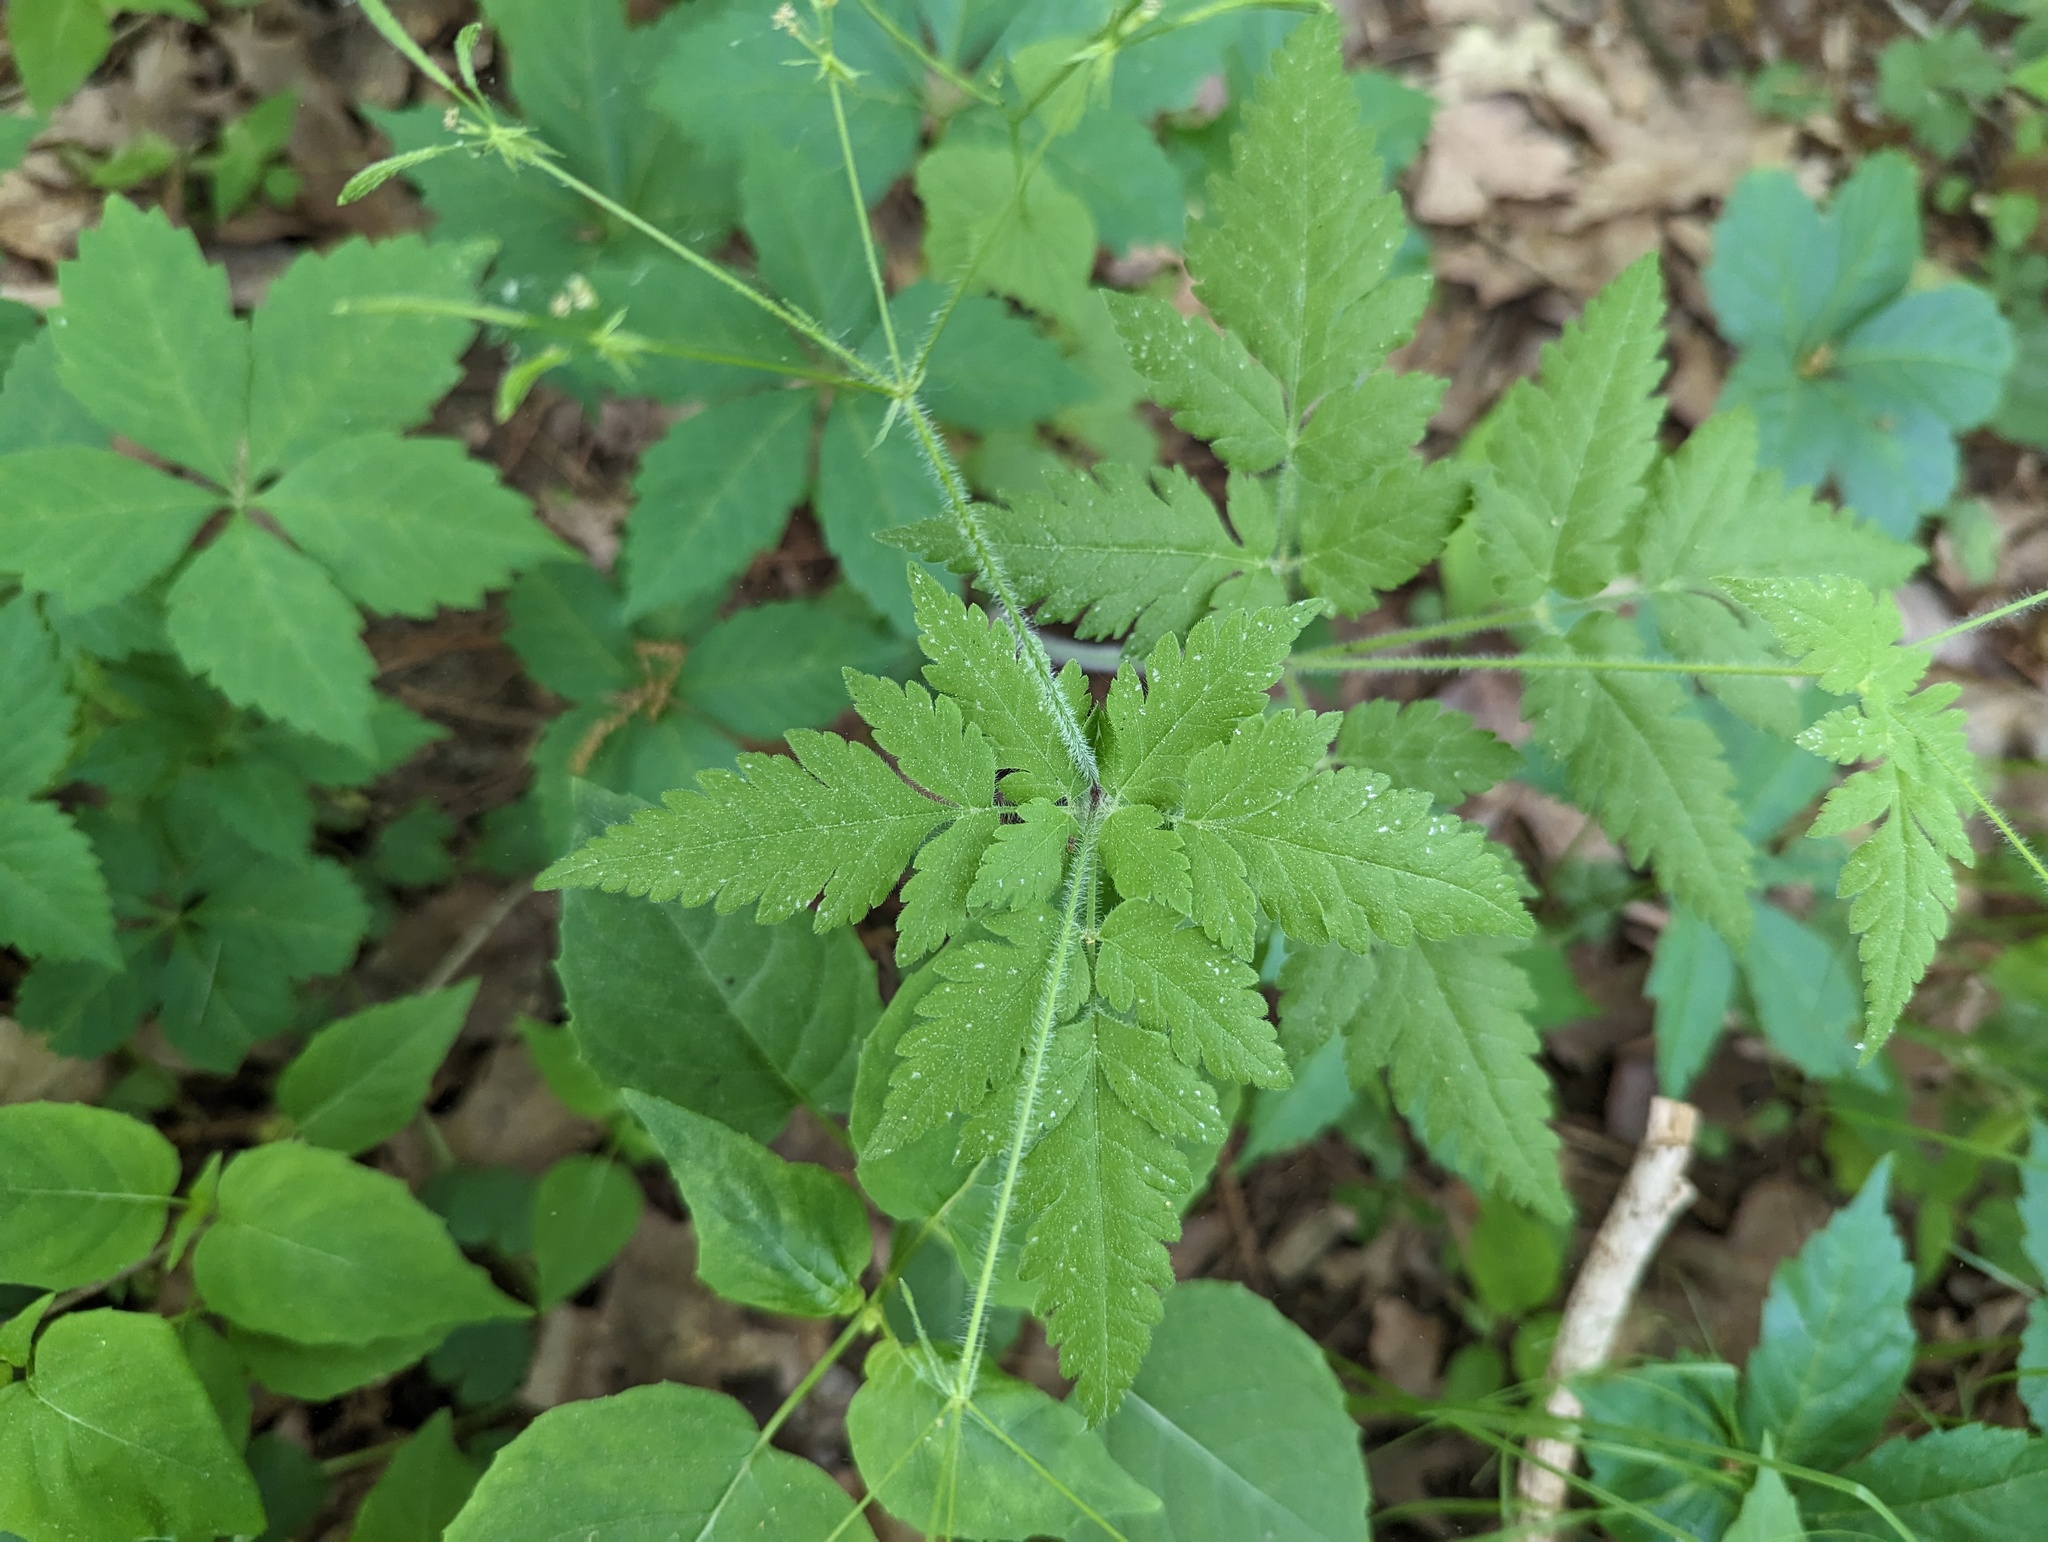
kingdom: Plantae
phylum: Tracheophyta
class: Magnoliopsida
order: Apiales
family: Apiaceae
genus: Osmorhiza
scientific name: Osmorhiza claytonii
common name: Hairy sweet cicely
